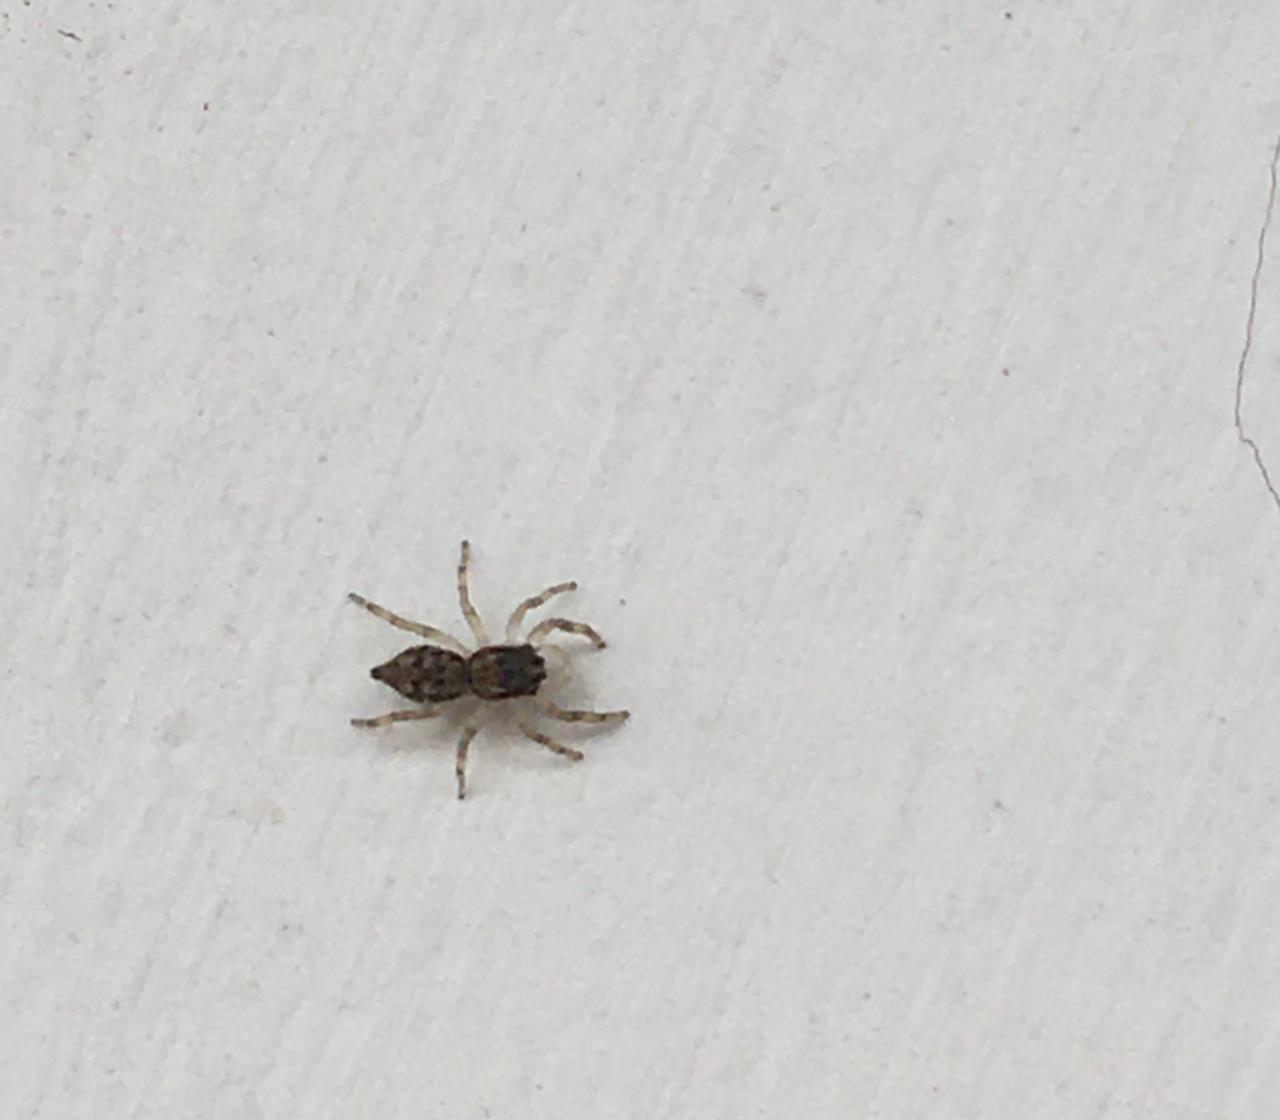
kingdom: Animalia
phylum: Arthropoda
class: Arachnida
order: Araneae
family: Salticidae
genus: Menemerus
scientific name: Menemerus bivittatus
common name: Gray wall jumper
